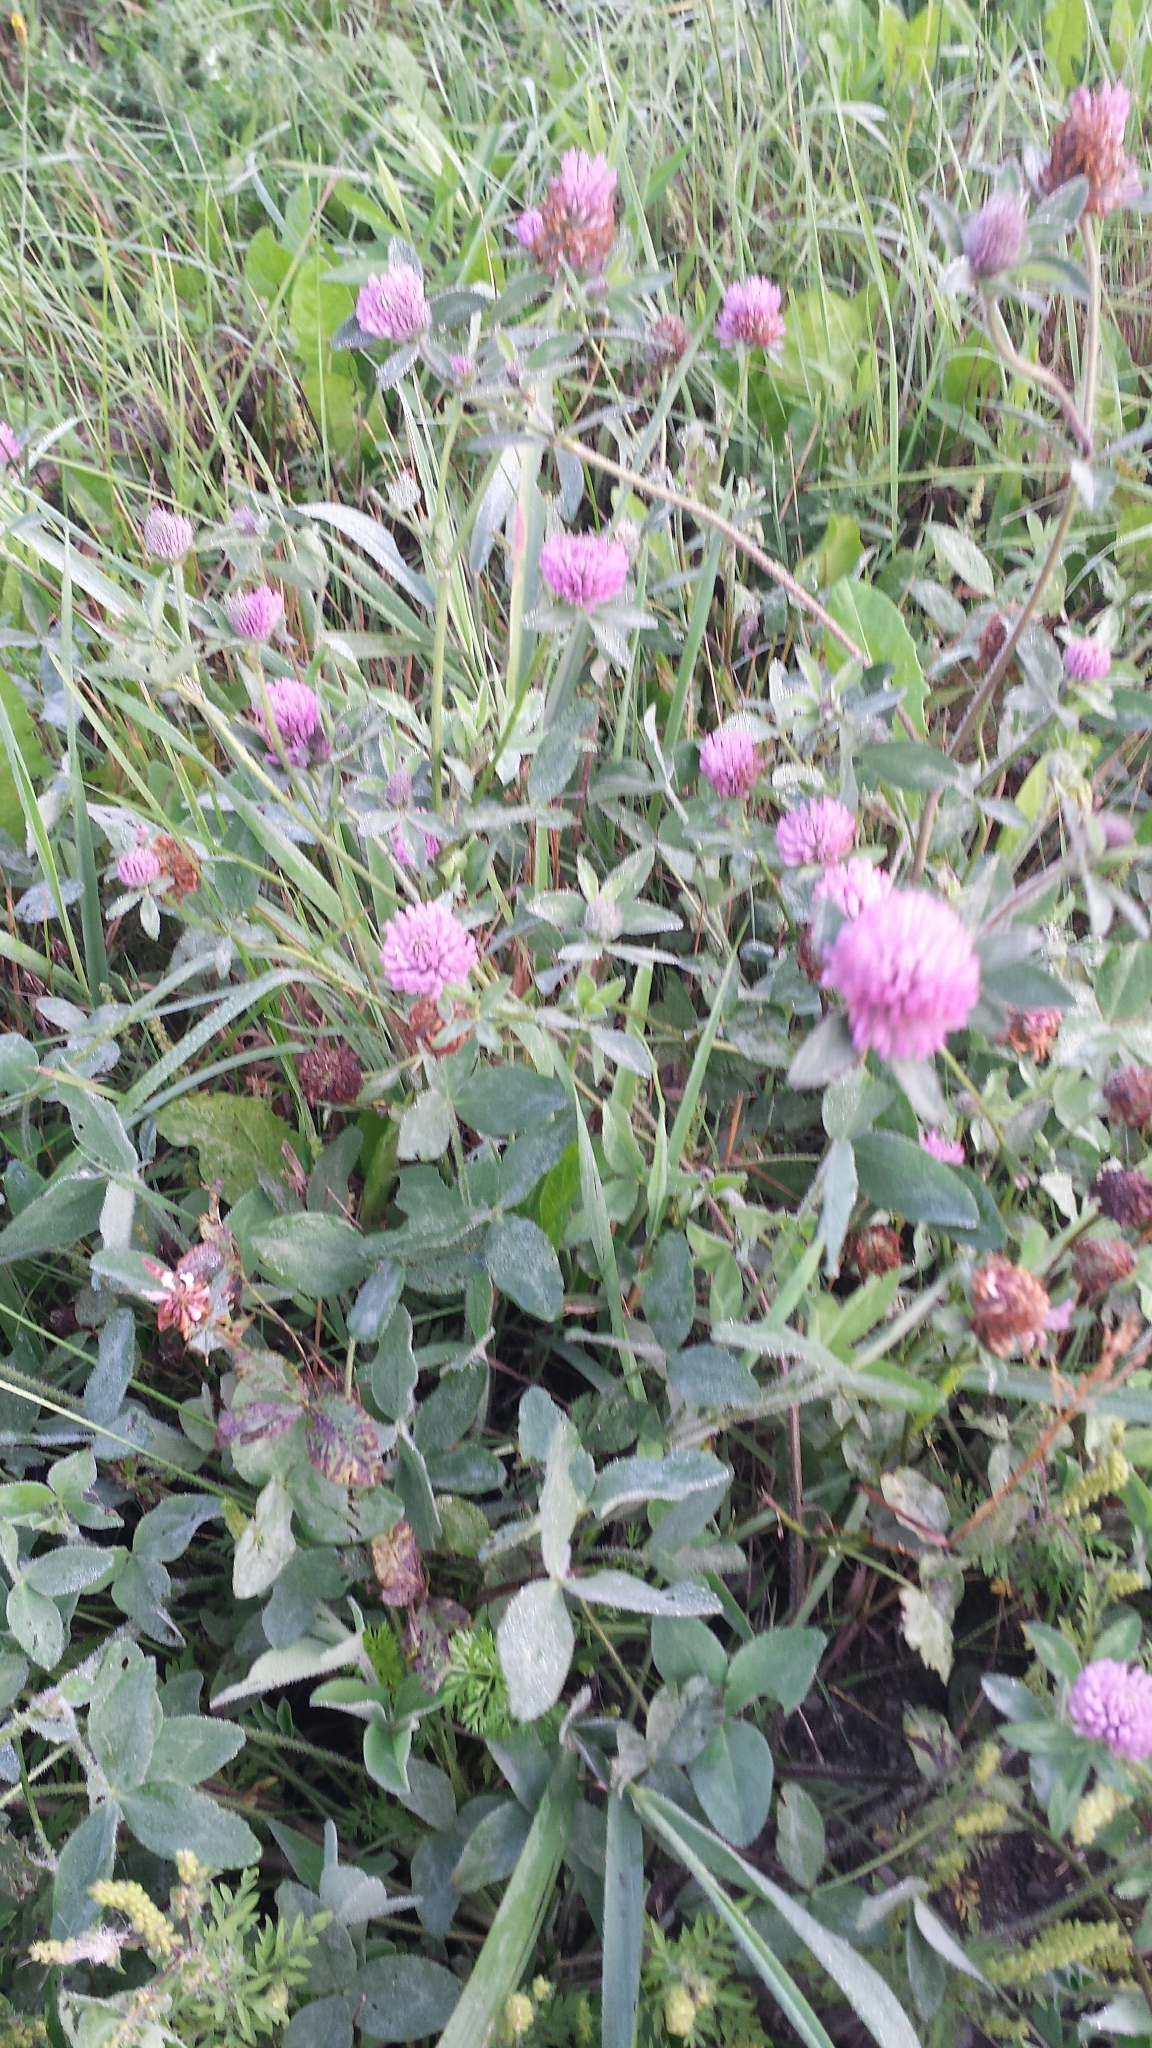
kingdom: Plantae
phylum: Tracheophyta
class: Magnoliopsida
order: Fabales
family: Fabaceae
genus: Trifolium
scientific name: Trifolium pratense
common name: Red clover
